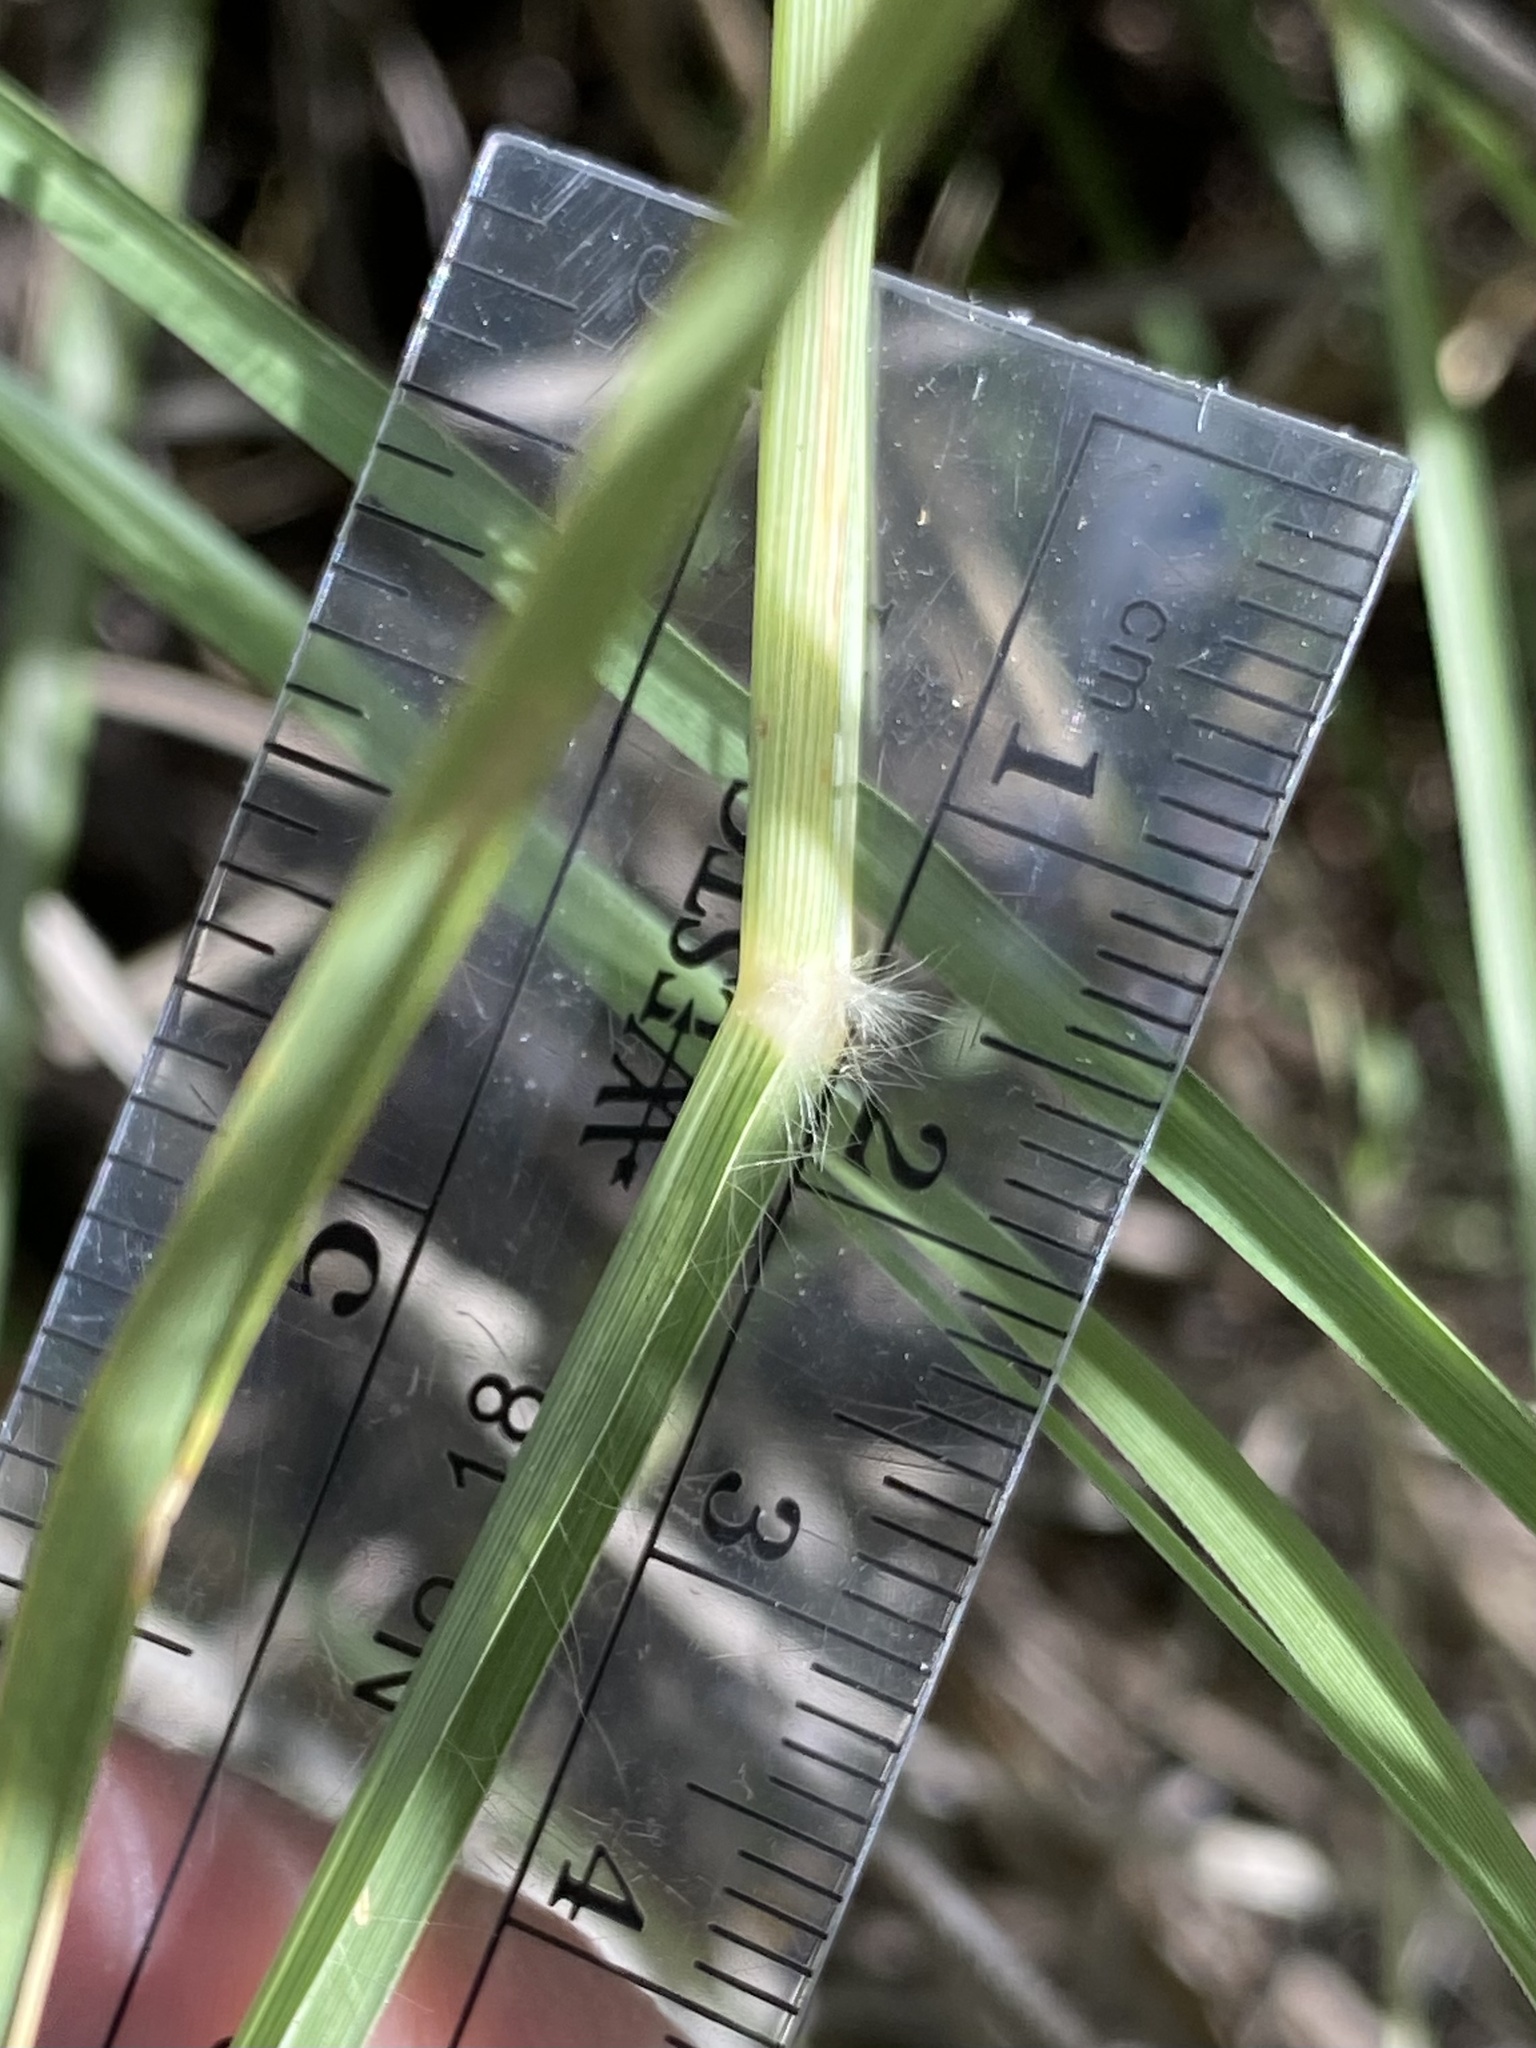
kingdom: Plantae
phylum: Tracheophyta
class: Liliopsida
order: Poales
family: Poaceae
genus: Sporobolus
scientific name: Sporobolus wrightii
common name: Big alkali sacaton
